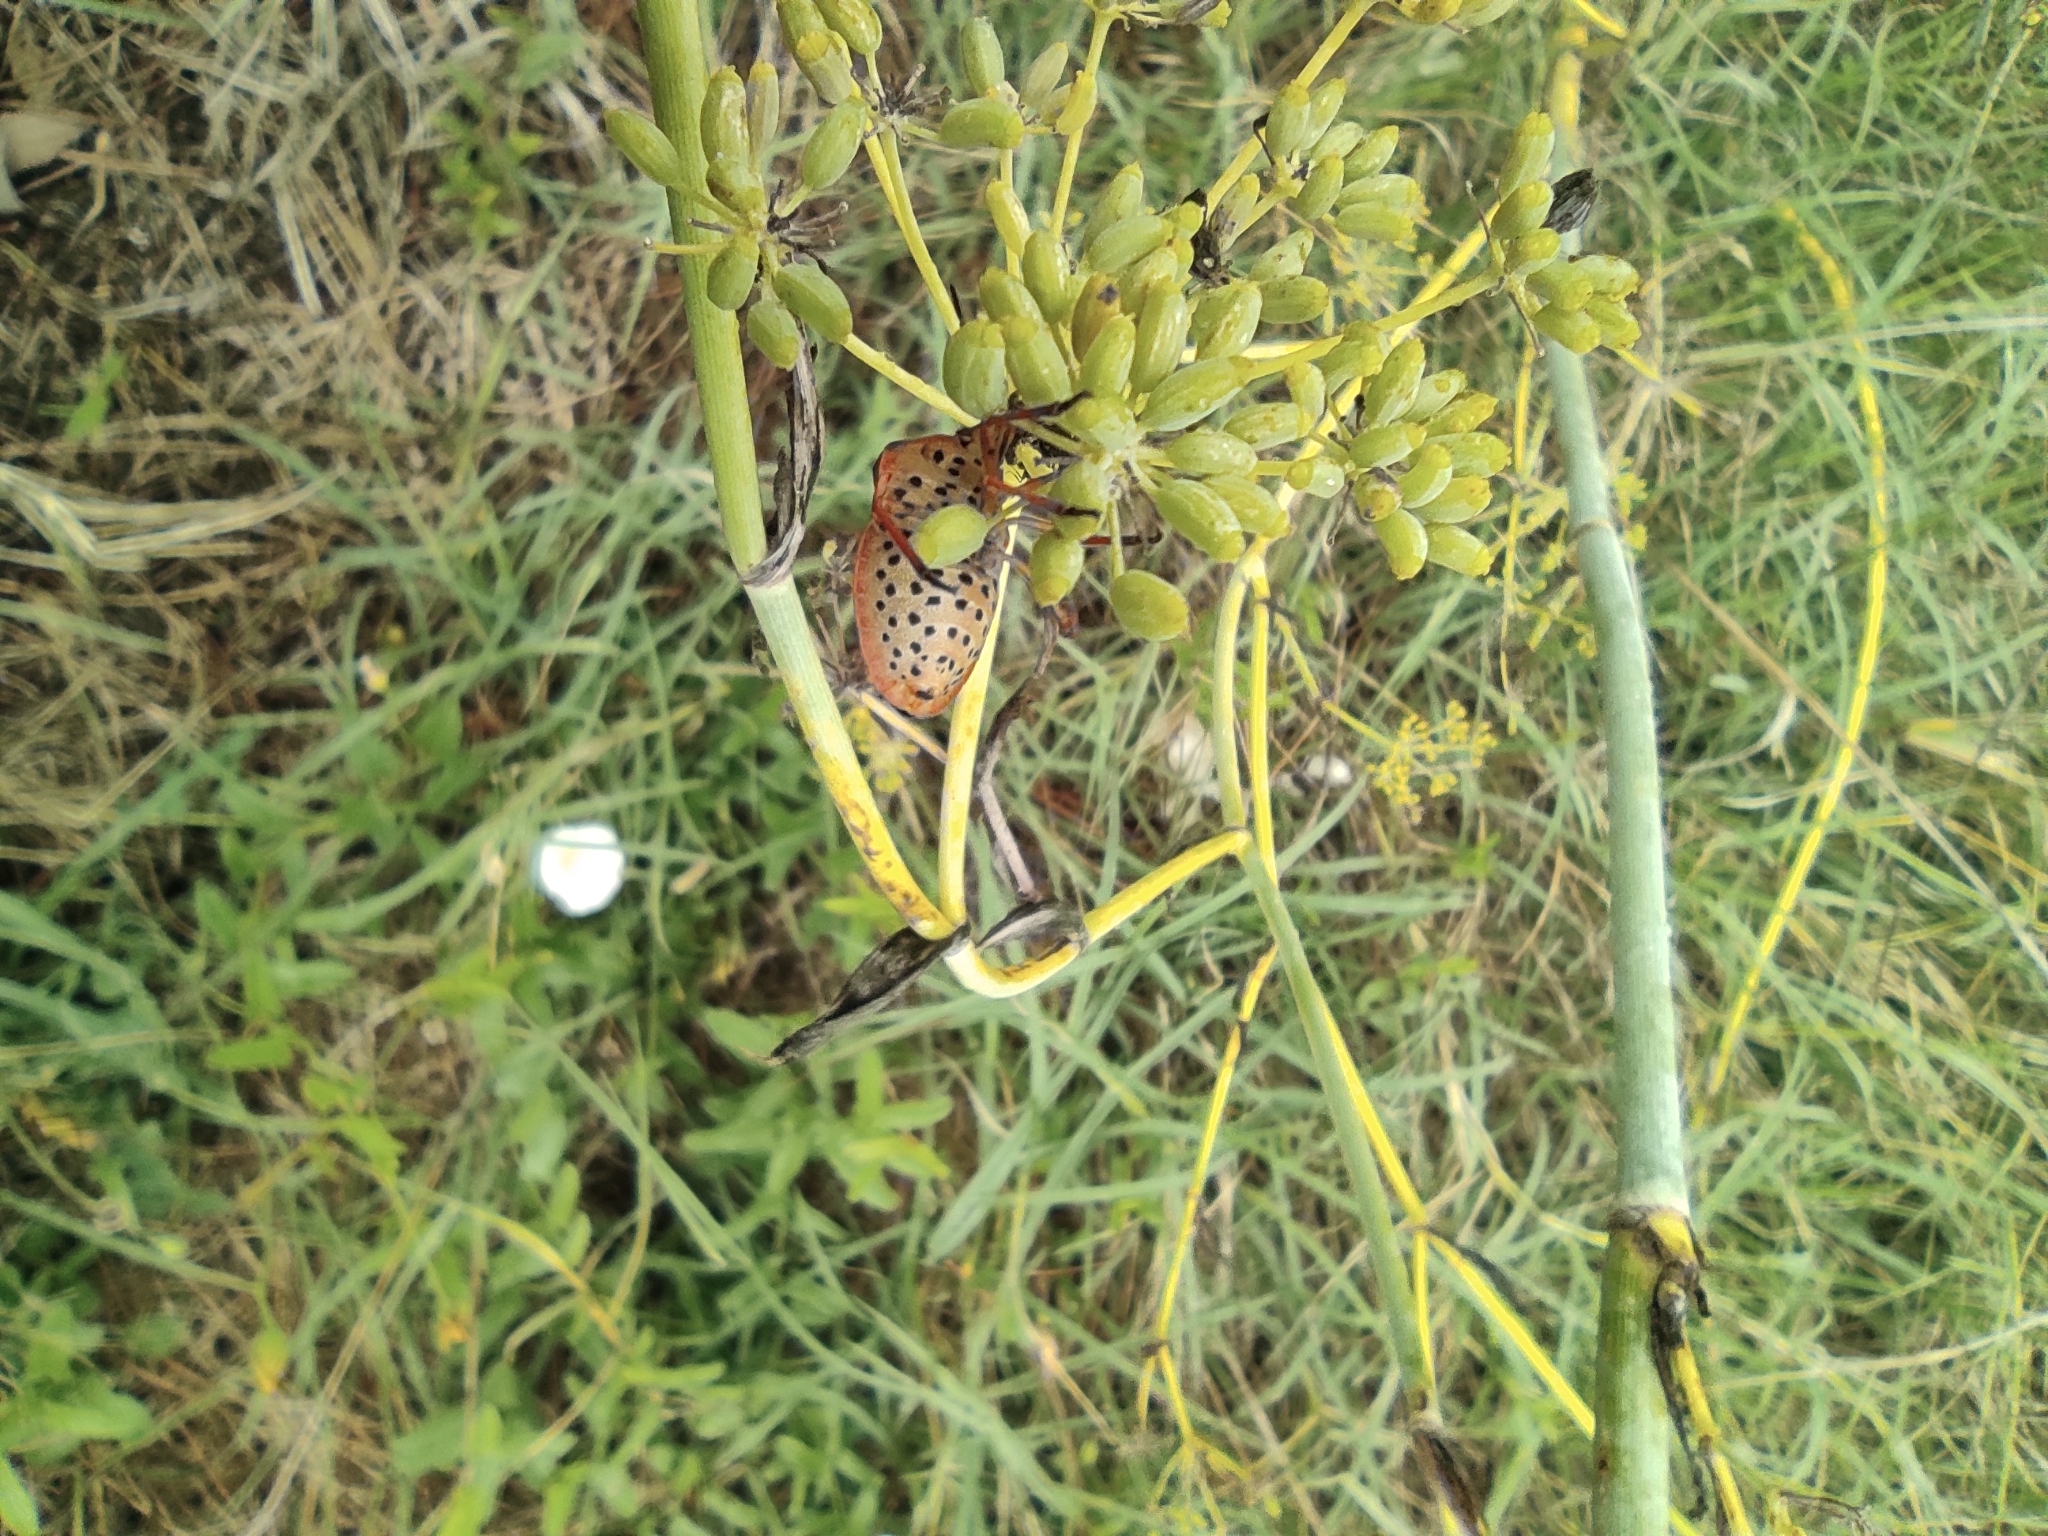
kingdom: Animalia
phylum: Arthropoda
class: Insecta
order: Hemiptera
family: Pentatomidae
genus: Graphosoma
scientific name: Graphosoma semipunctatum
